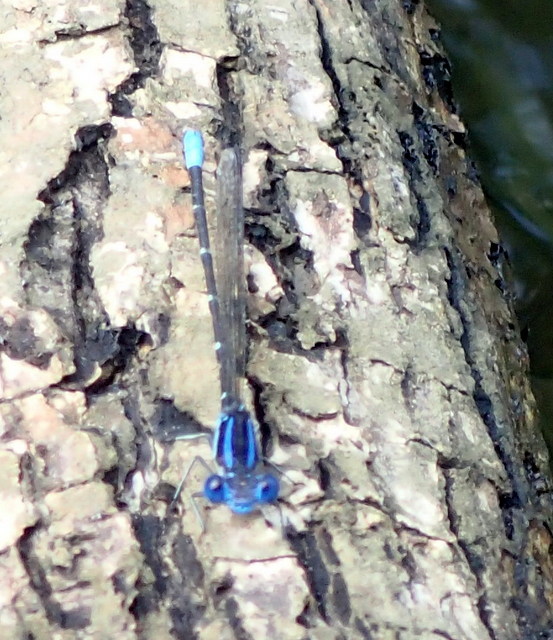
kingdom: Animalia
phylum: Arthropoda
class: Insecta
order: Odonata
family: Coenagrionidae
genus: Argia
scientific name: Argia sedula
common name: Blue-ringed dancer
